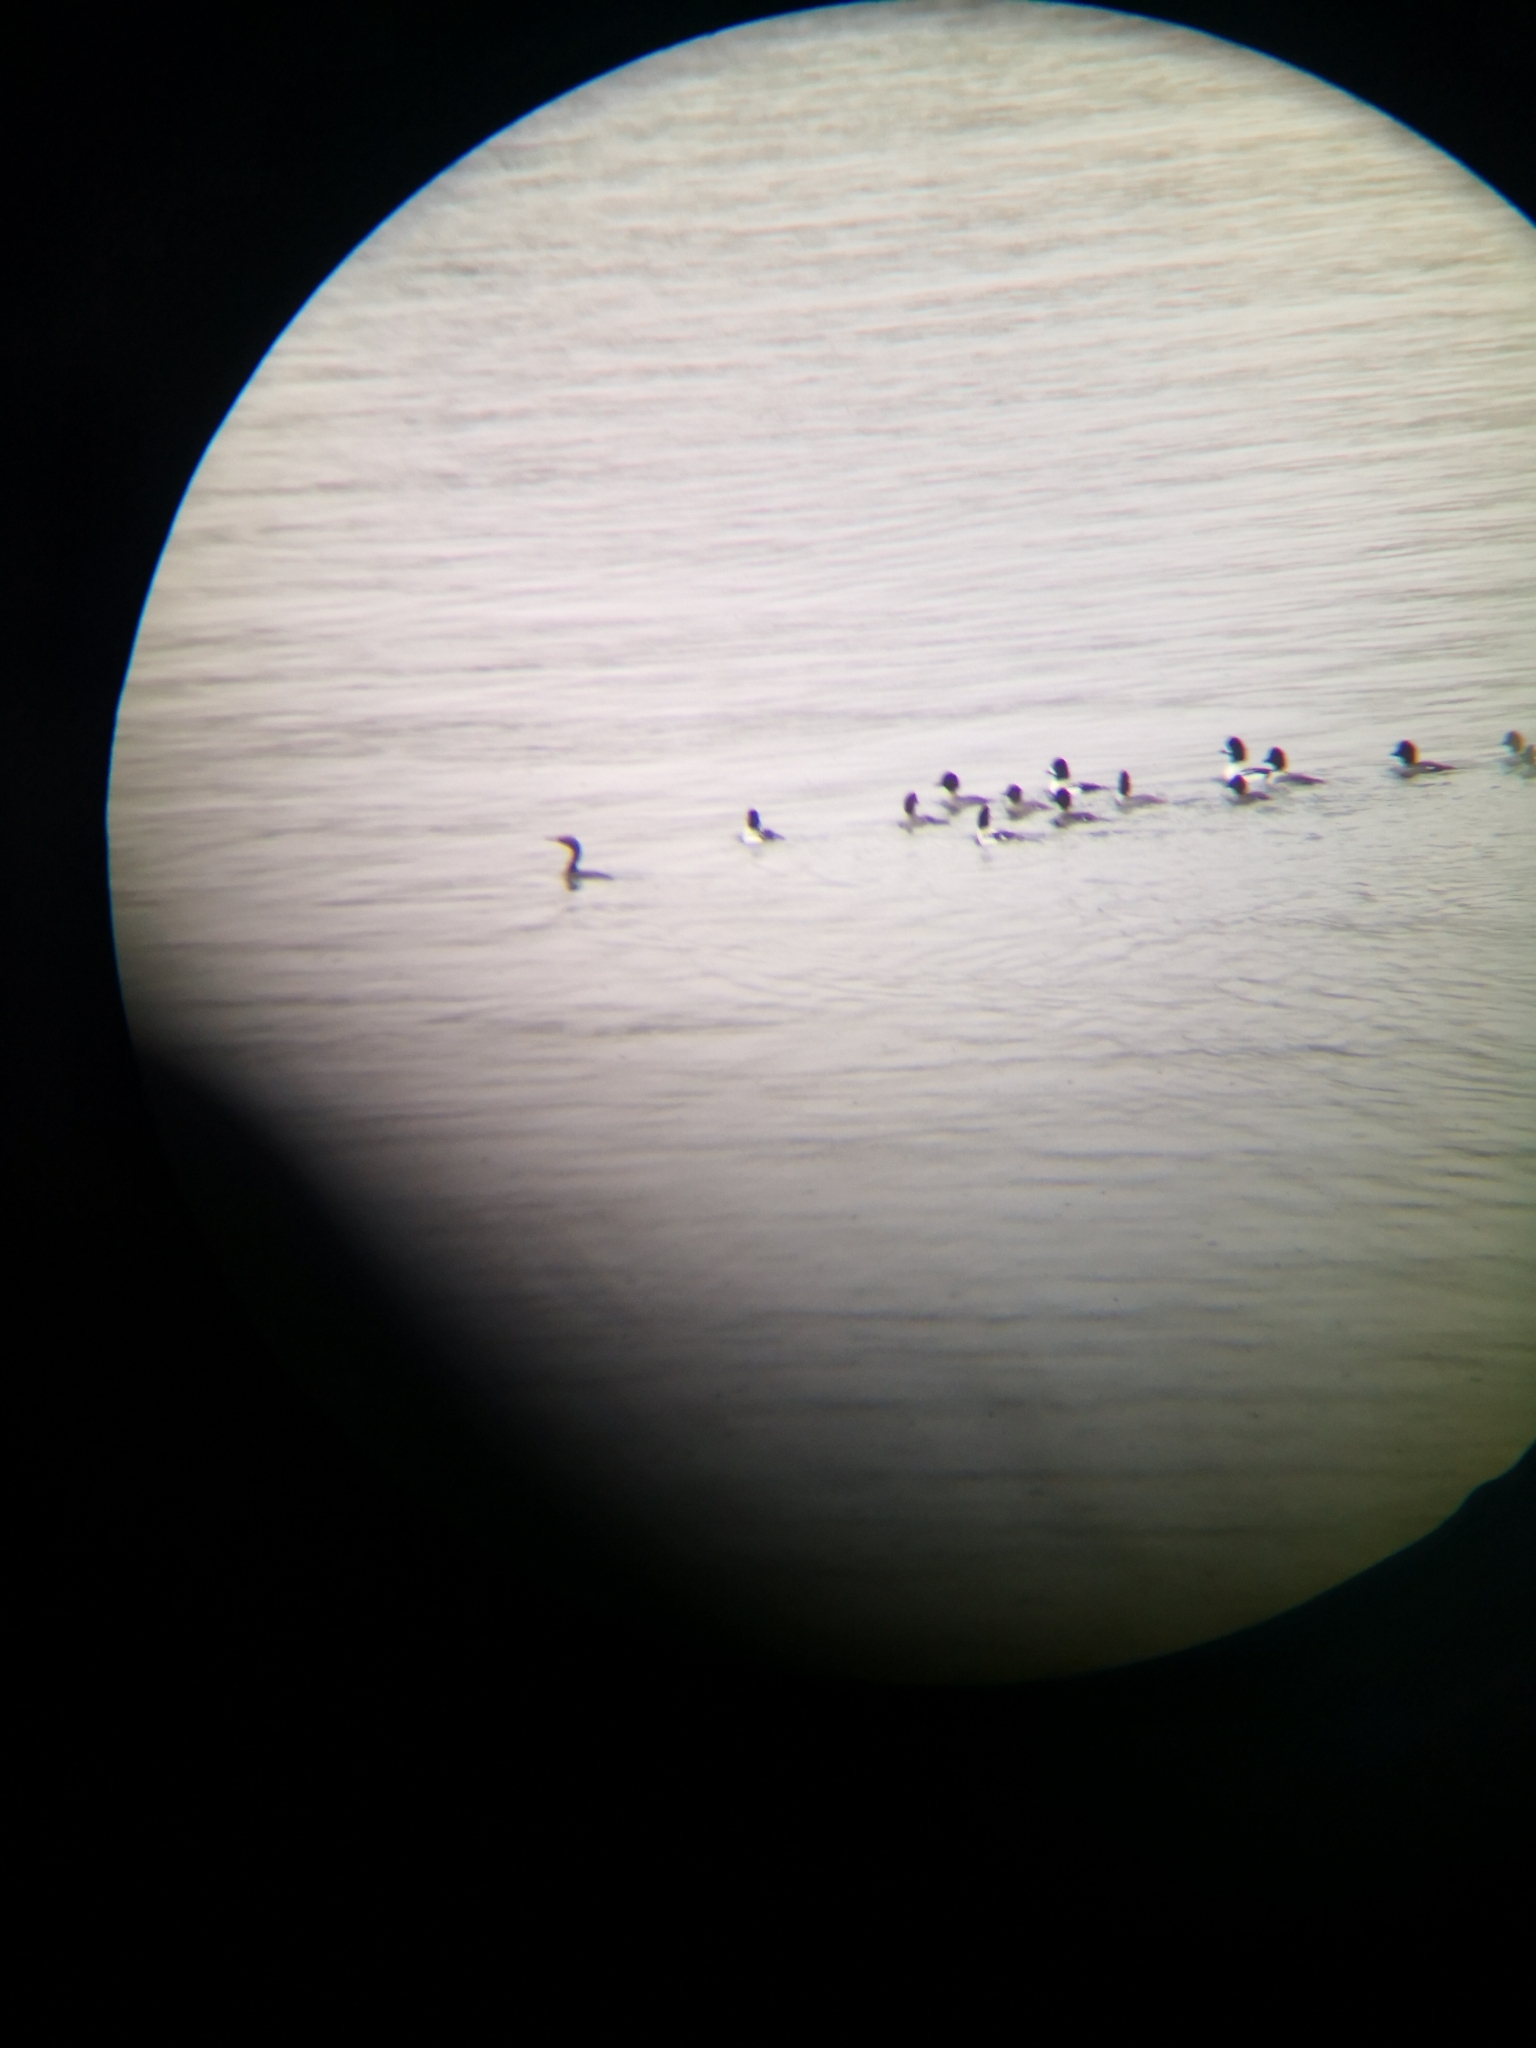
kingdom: Animalia
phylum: Chordata
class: Aves
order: Anseriformes
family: Anatidae
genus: Bucephala
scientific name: Bucephala islandica
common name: Barrow's goldeneye
